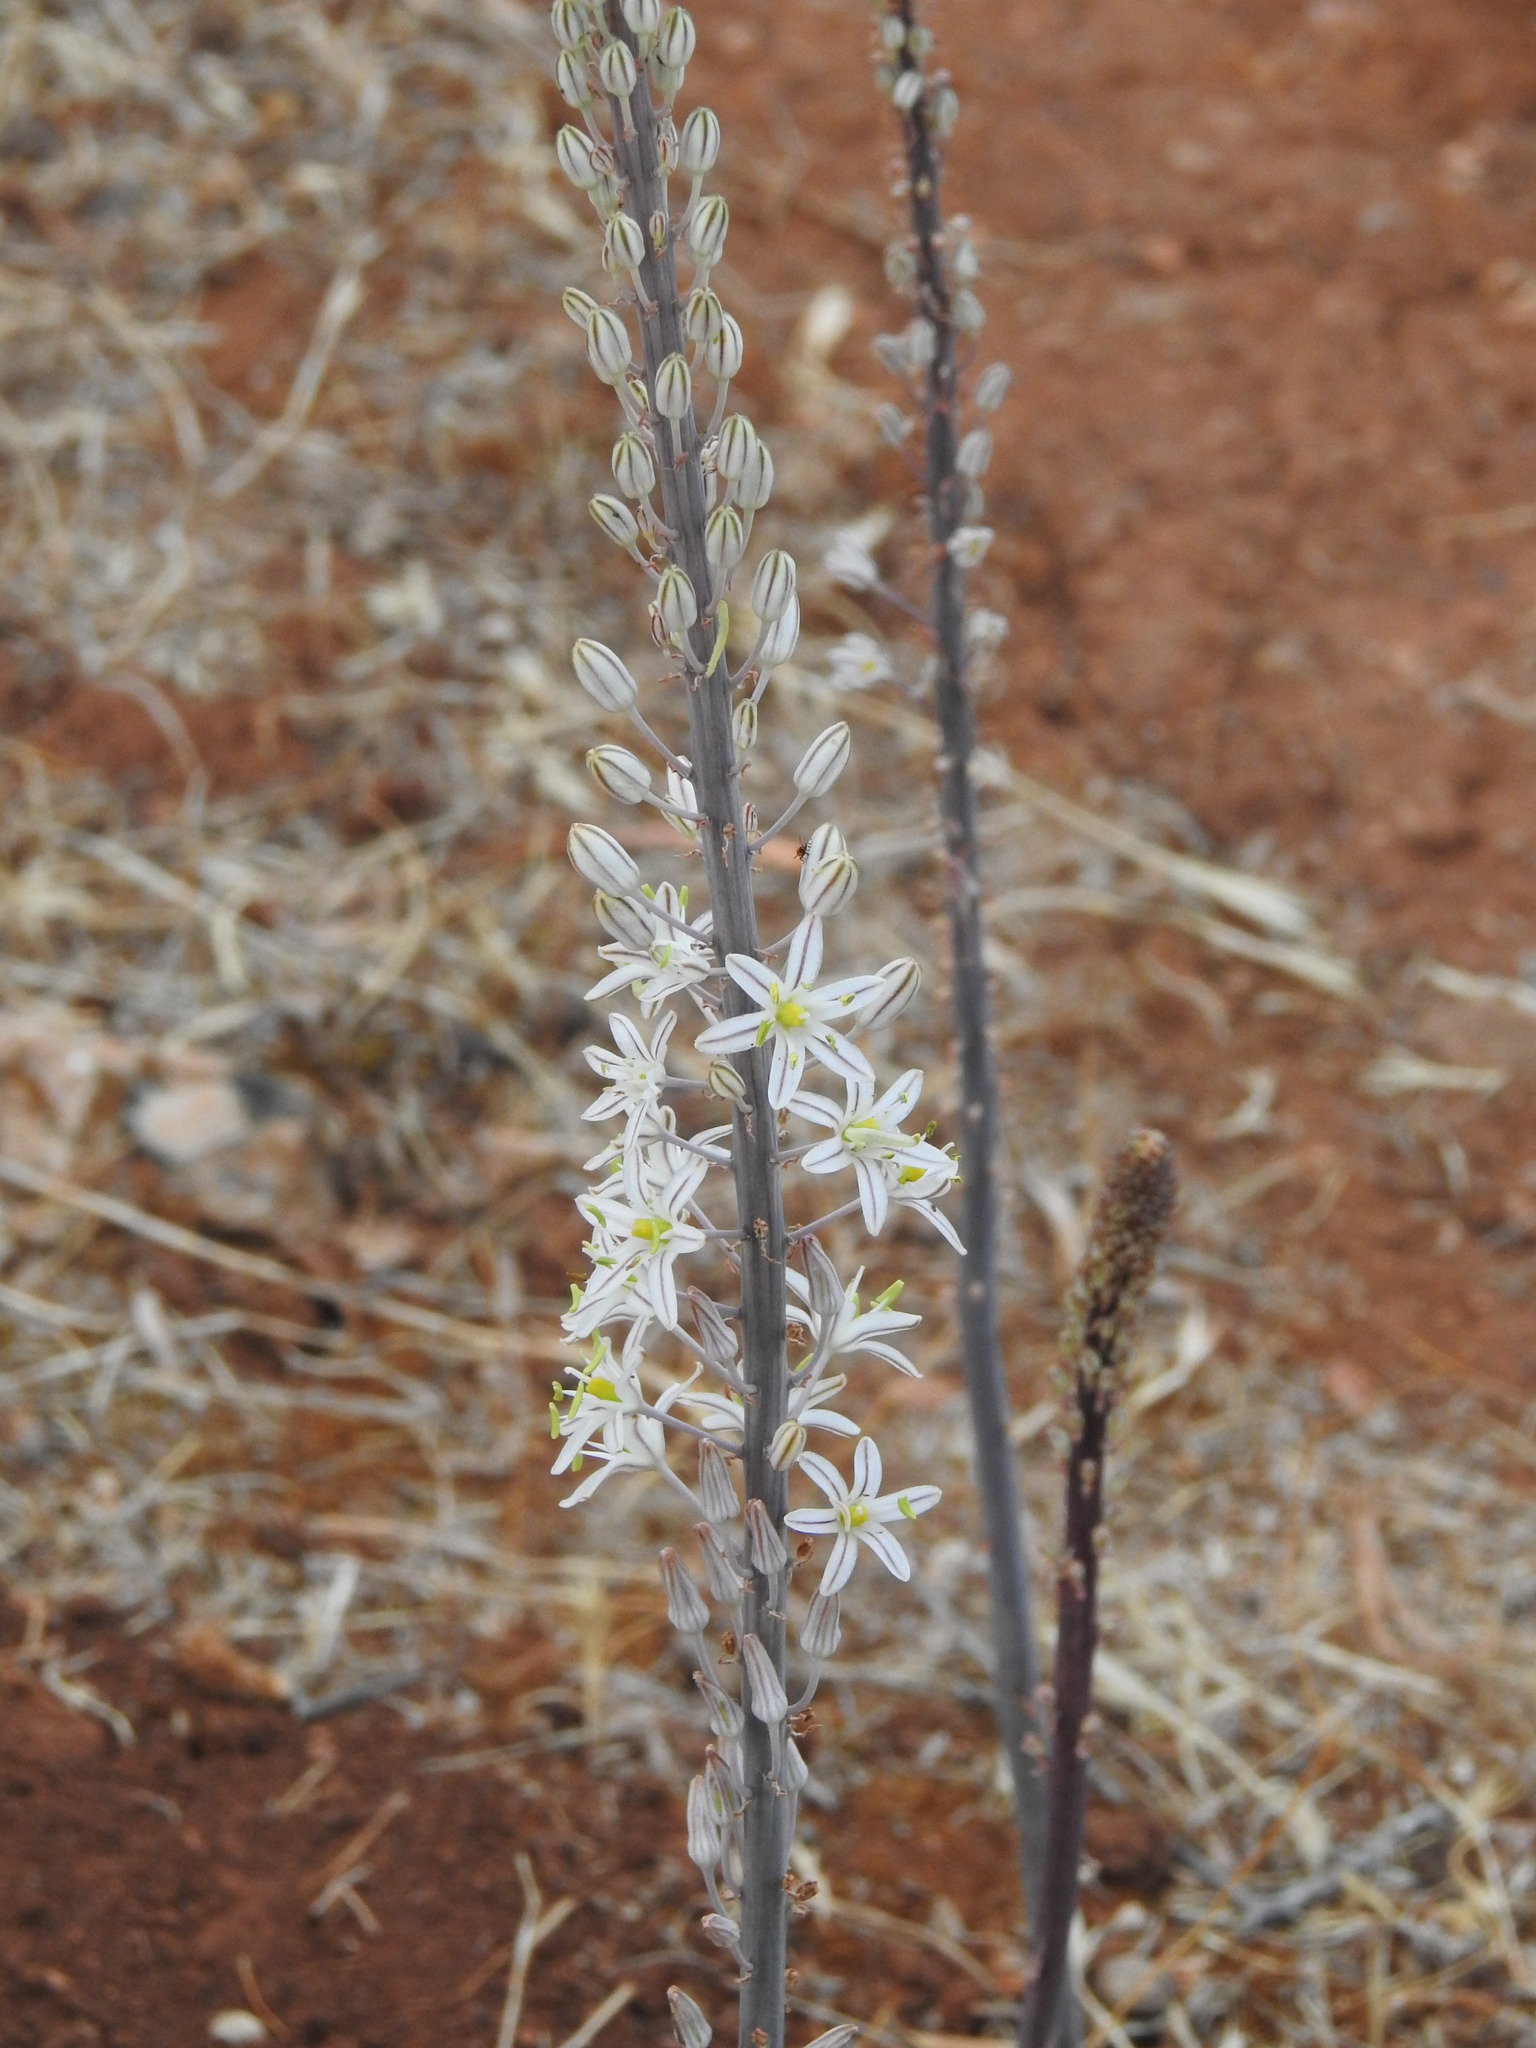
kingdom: Plantae
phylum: Tracheophyta
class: Liliopsida
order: Asparagales
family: Asparagaceae
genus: Drimia
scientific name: Drimia maritima
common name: Maritime squill
